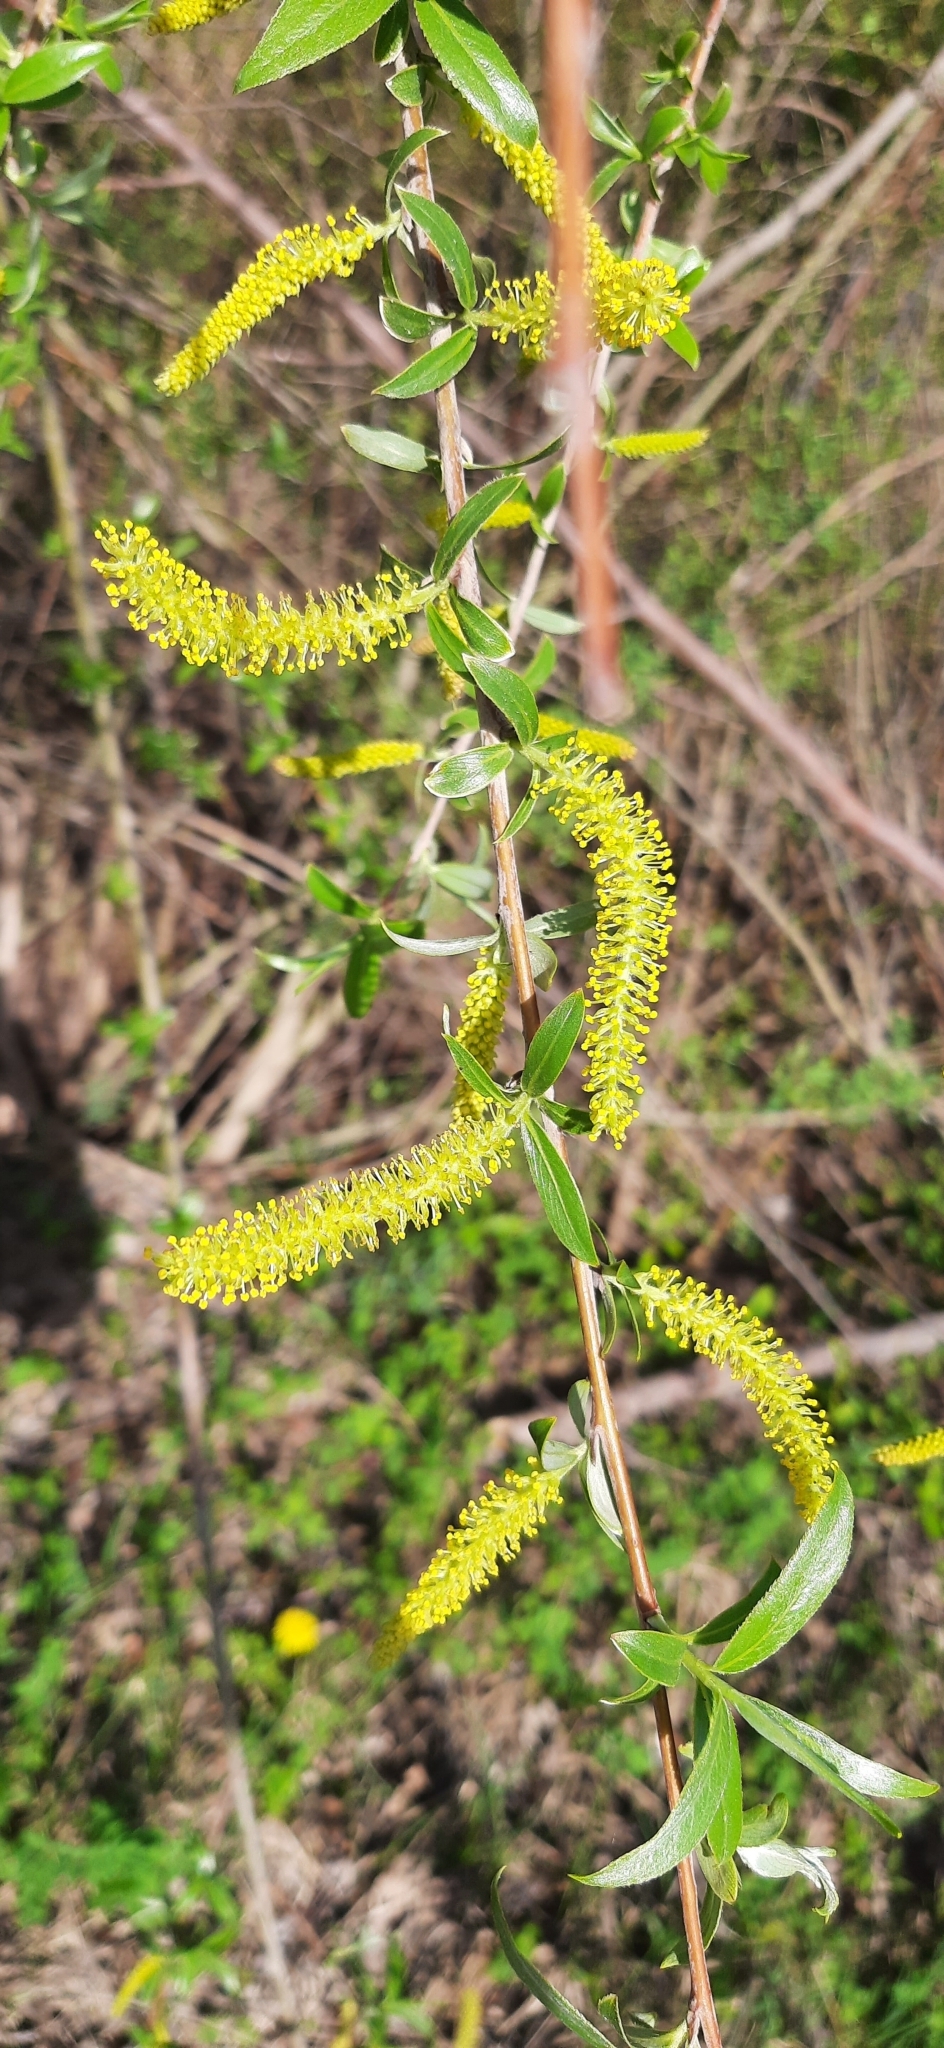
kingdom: Plantae
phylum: Tracheophyta
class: Magnoliopsida
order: Malpighiales
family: Salicaceae
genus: Salix
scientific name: Salix alba
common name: White willow
